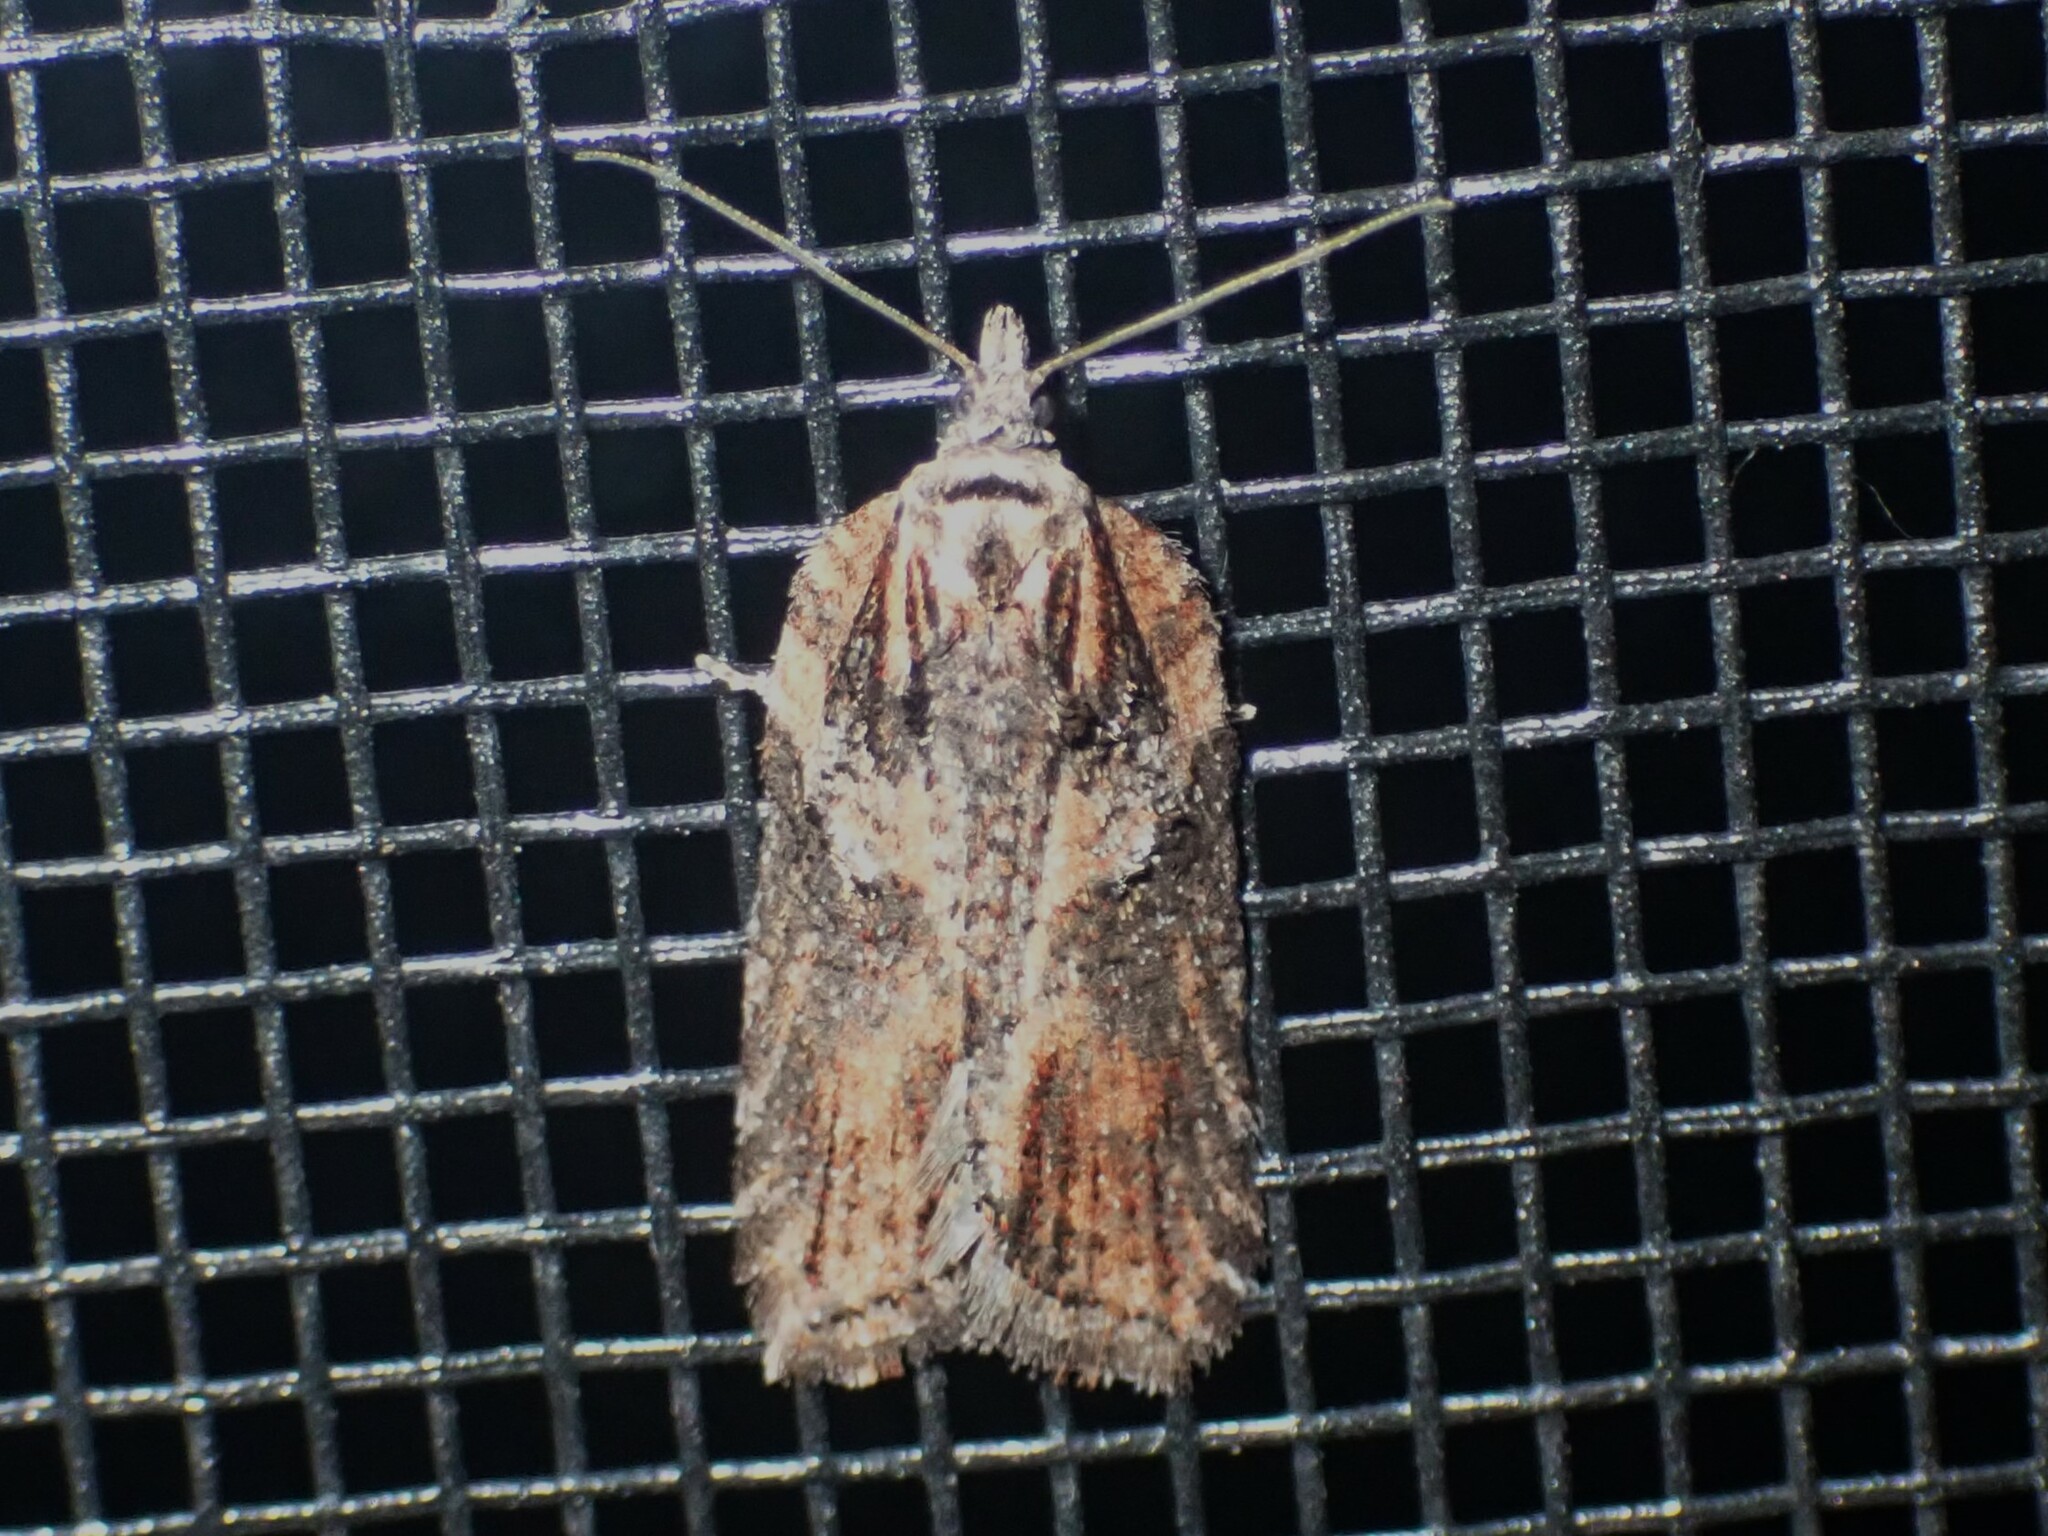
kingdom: Animalia
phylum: Arthropoda
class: Insecta
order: Lepidoptera
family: Tortricidae
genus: Acleris
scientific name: Acleris hastiana
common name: Sallow button
